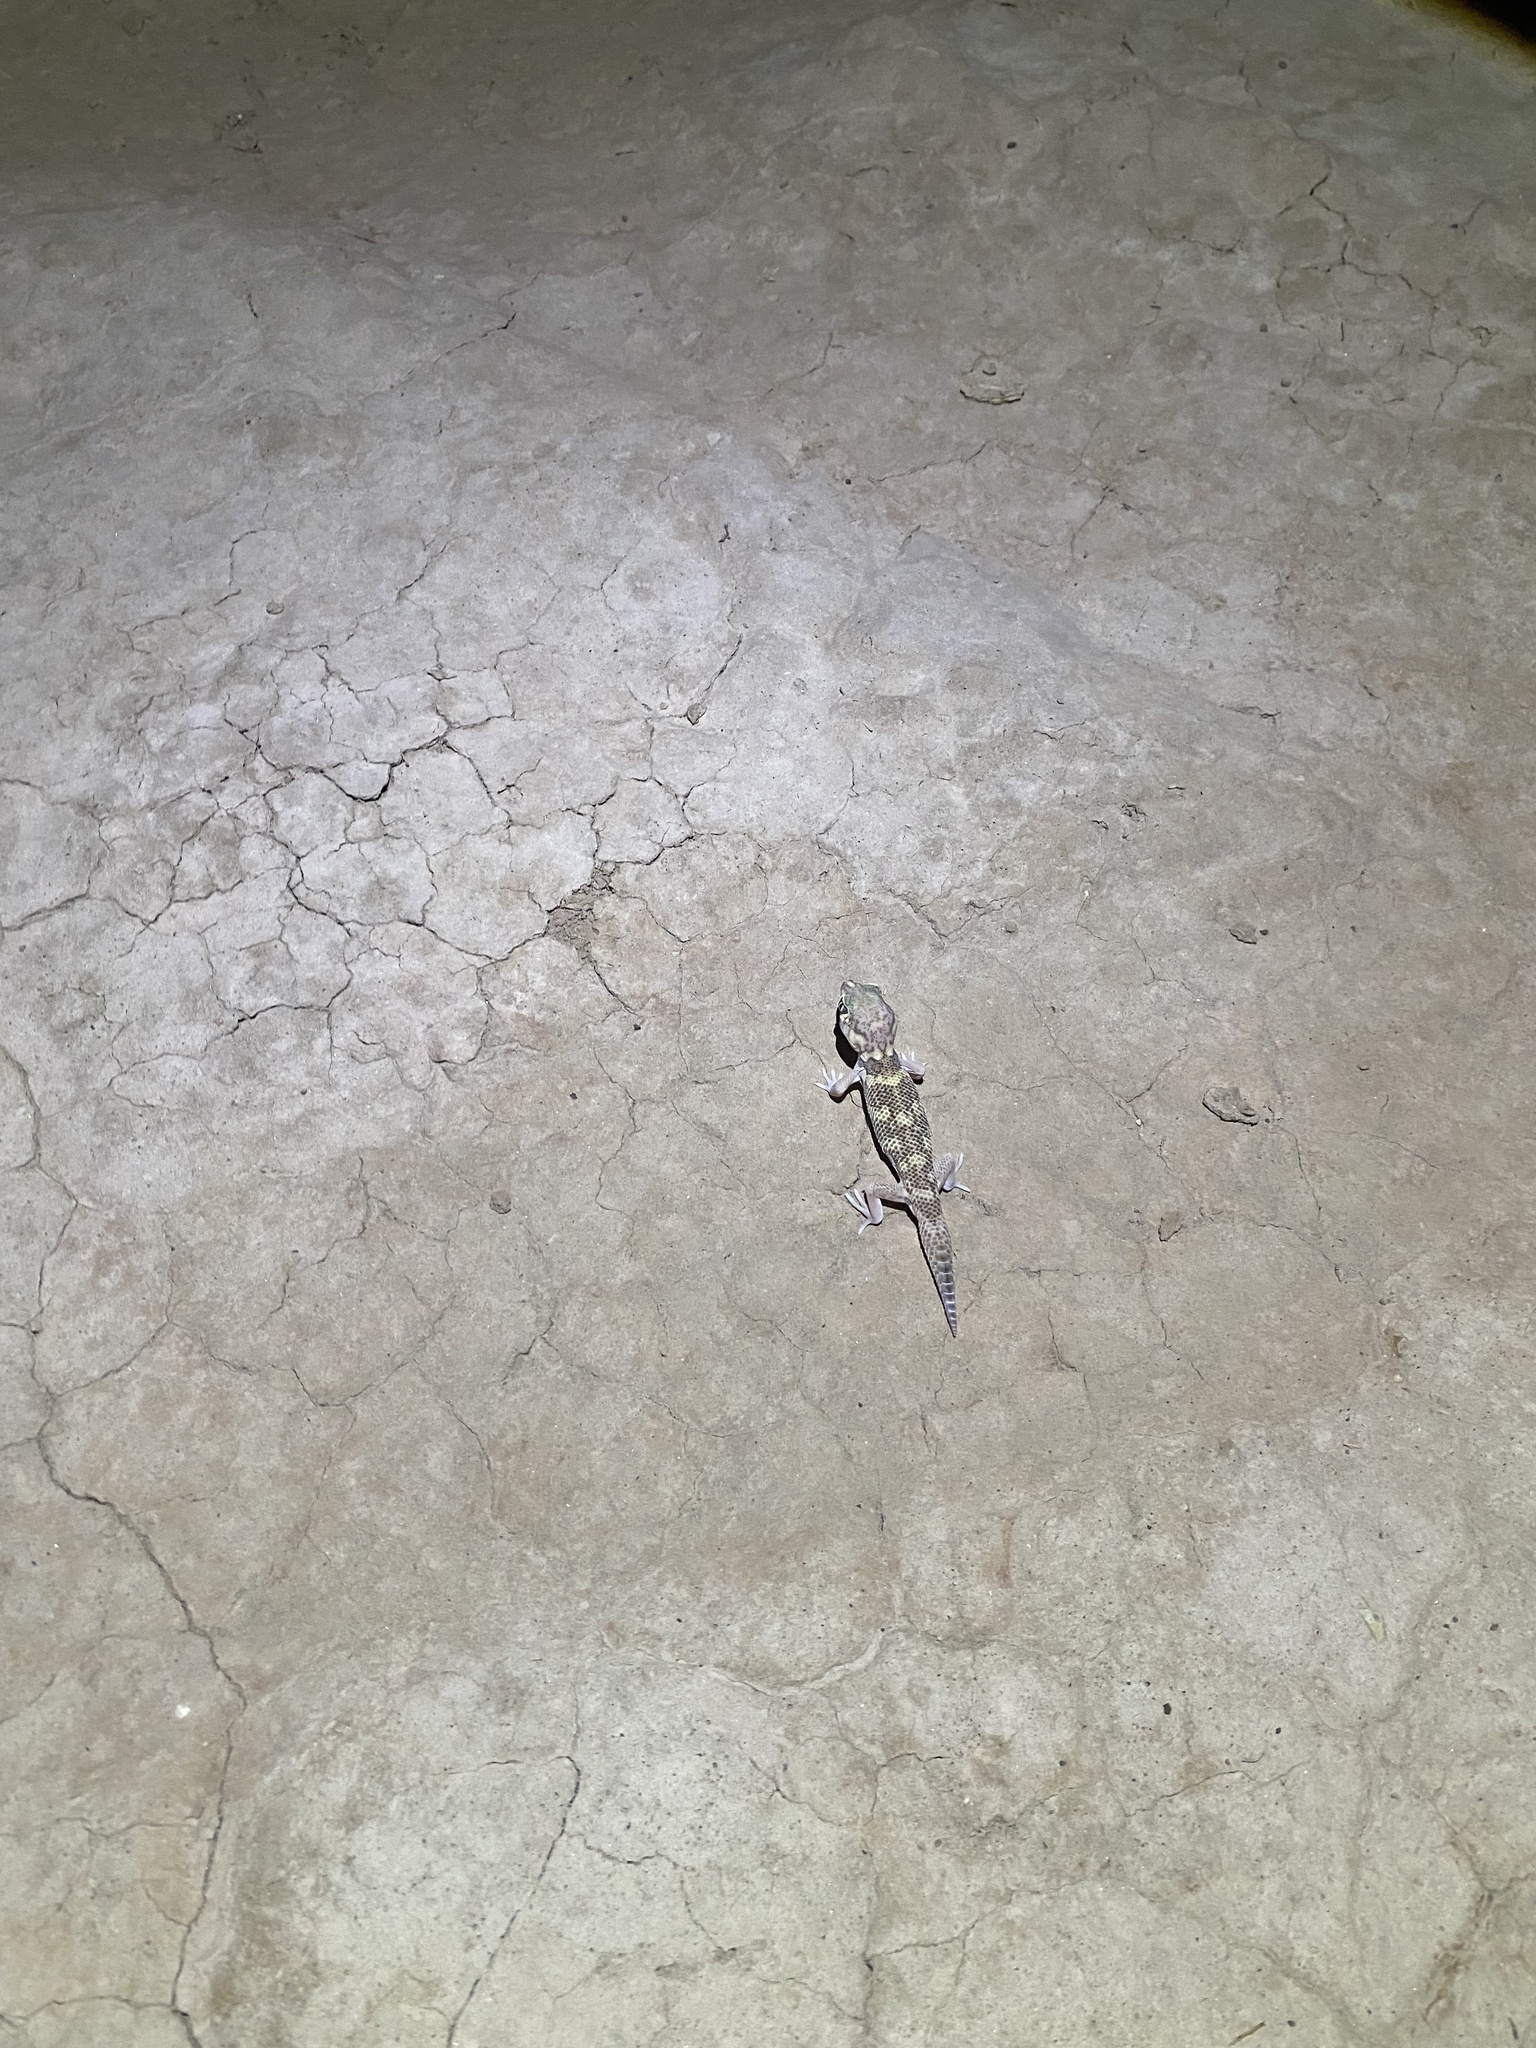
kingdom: Animalia
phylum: Chordata
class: Squamata
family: Sphaerodactylidae
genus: Teratoscincus
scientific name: Teratoscincus bedriagai
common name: Bedriaga's plate-tailed gecko
